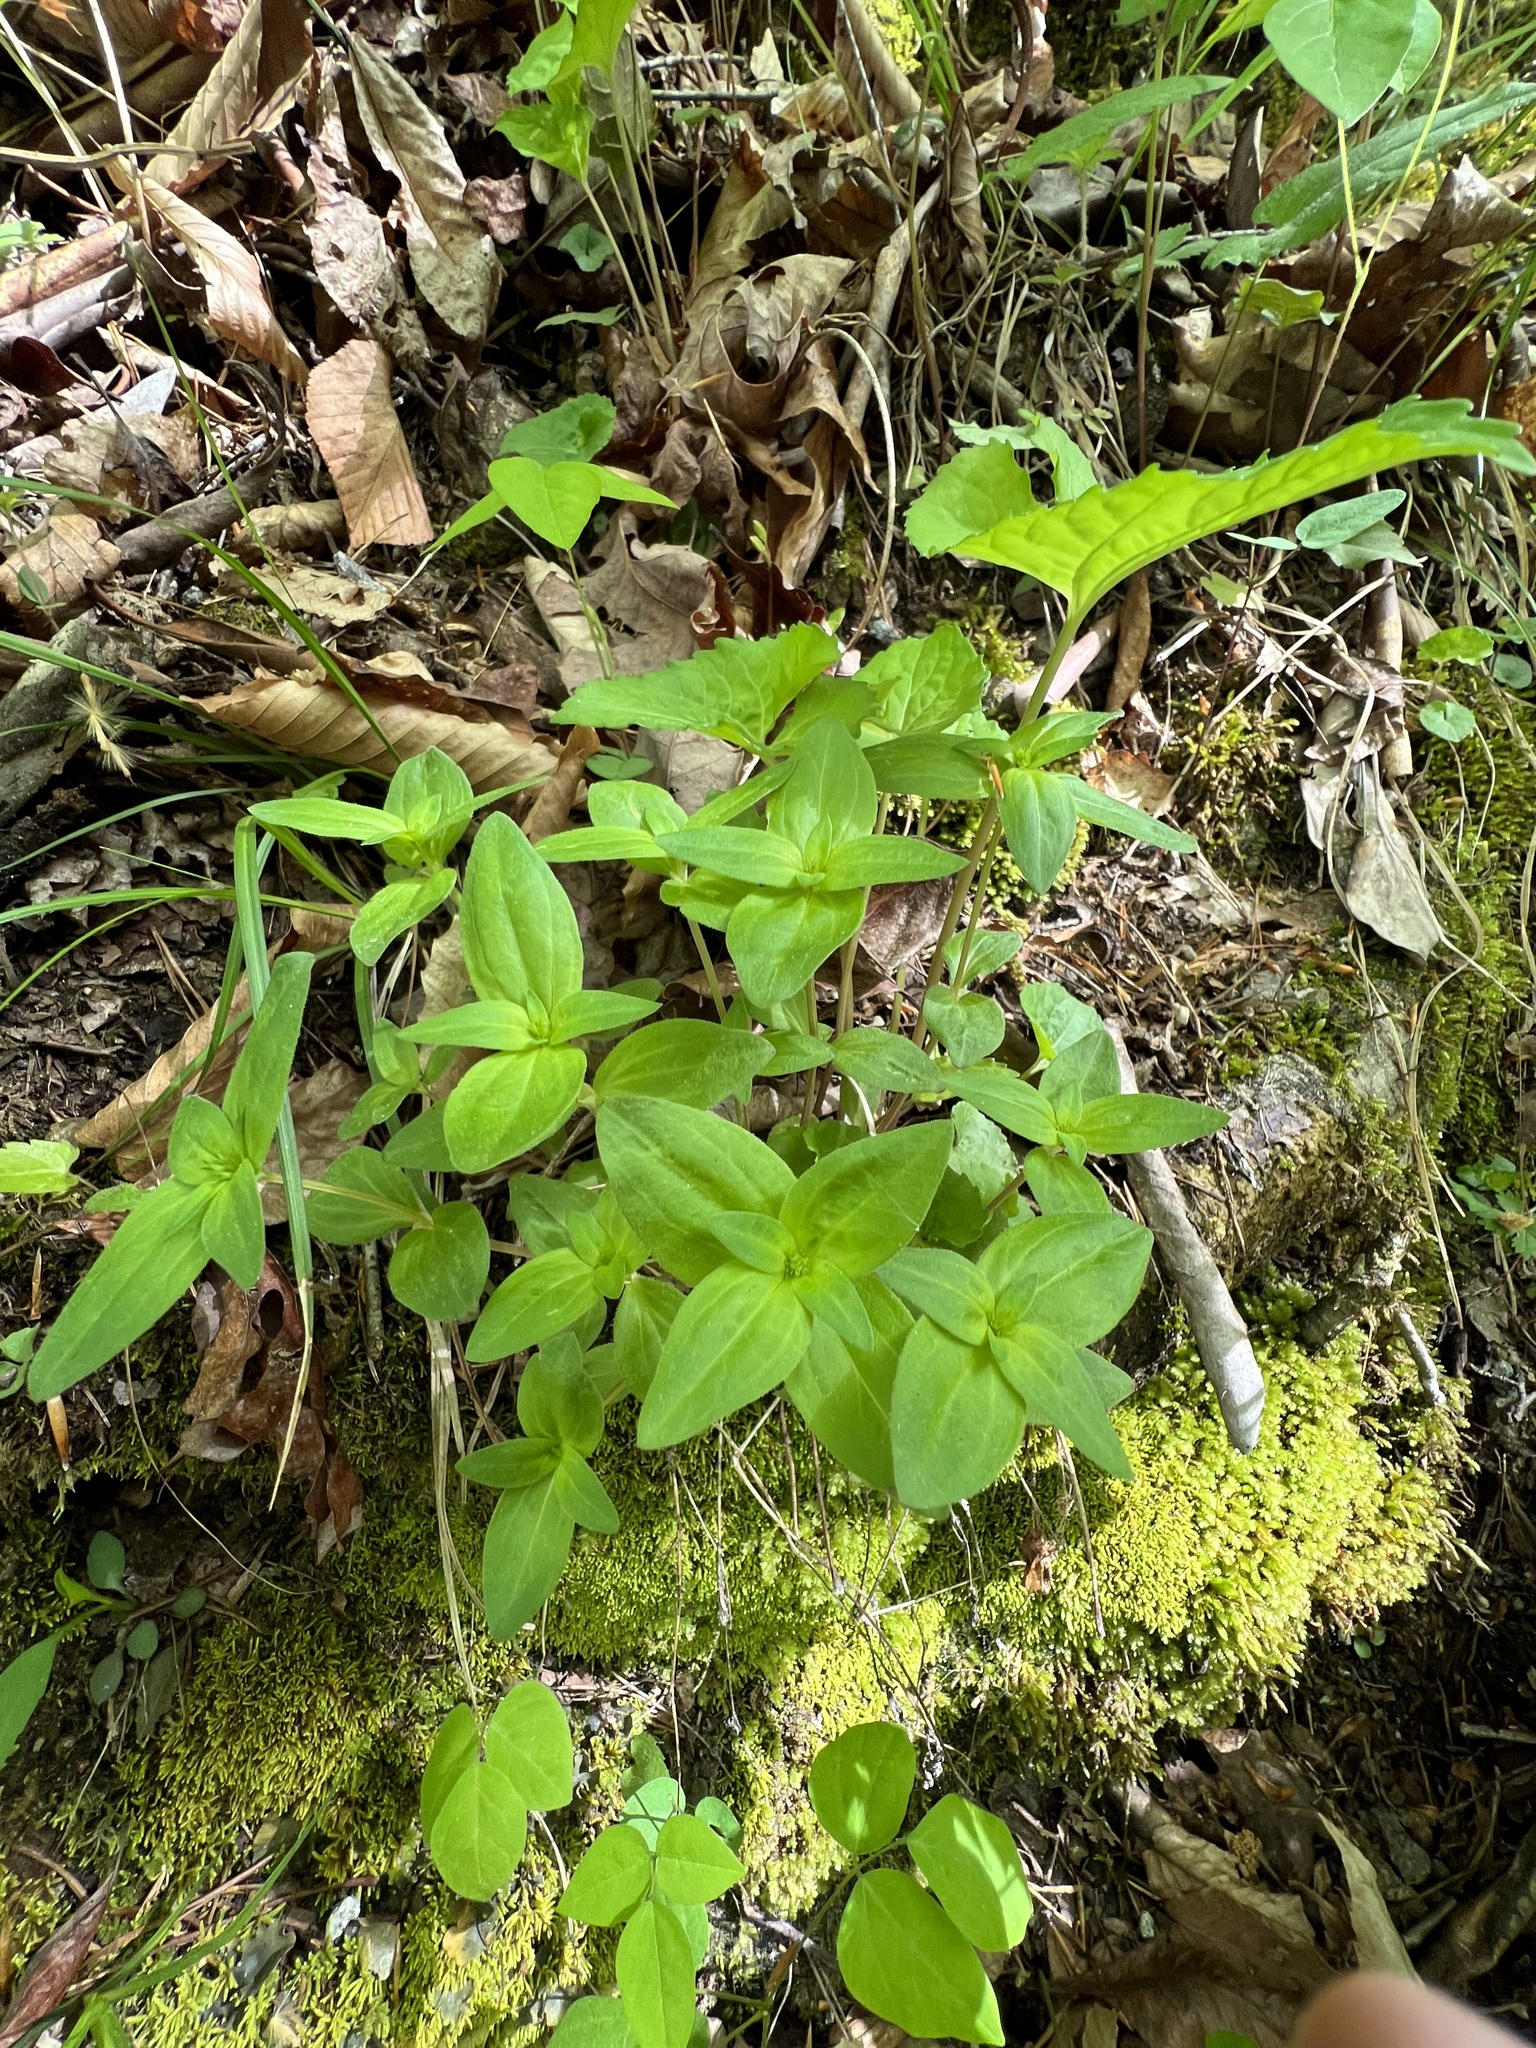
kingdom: Plantae
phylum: Tracheophyta
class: Magnoliopsida
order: Gentianales
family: Rubiaceae
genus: Houstonia
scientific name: Houstonia purpurea
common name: Summer bluet
